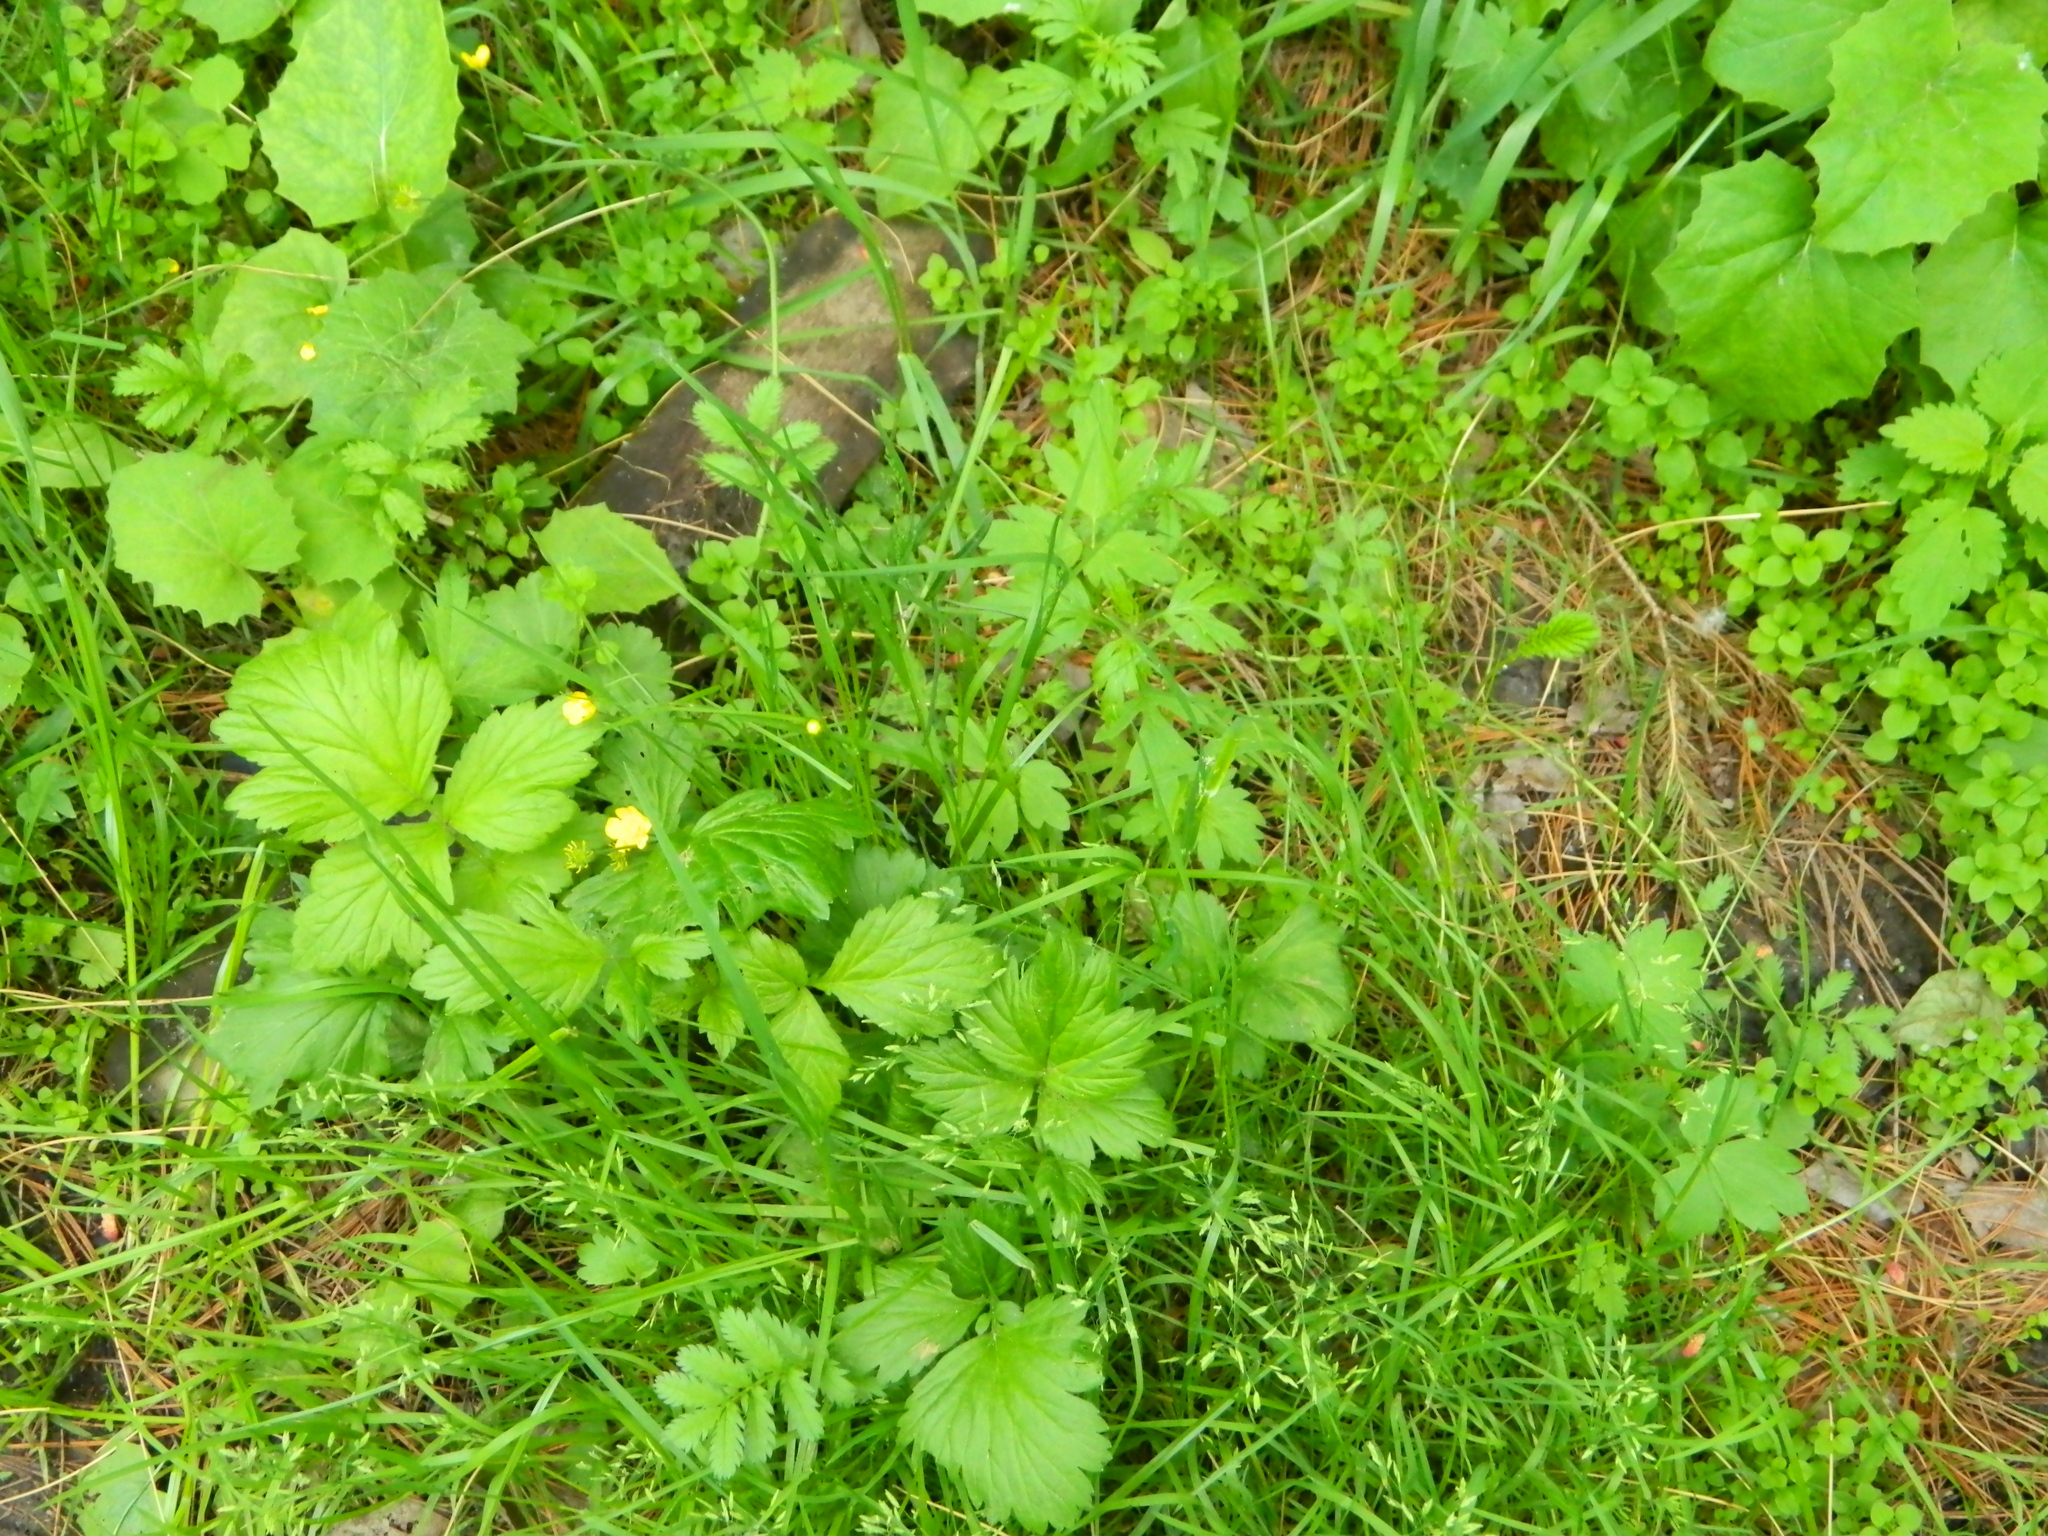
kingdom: Plantae
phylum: Tracheophyta
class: Magnoliopsida
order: Rosales
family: Rosaceae
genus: Geum
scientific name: Geum aleppicum
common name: Yellow avens
